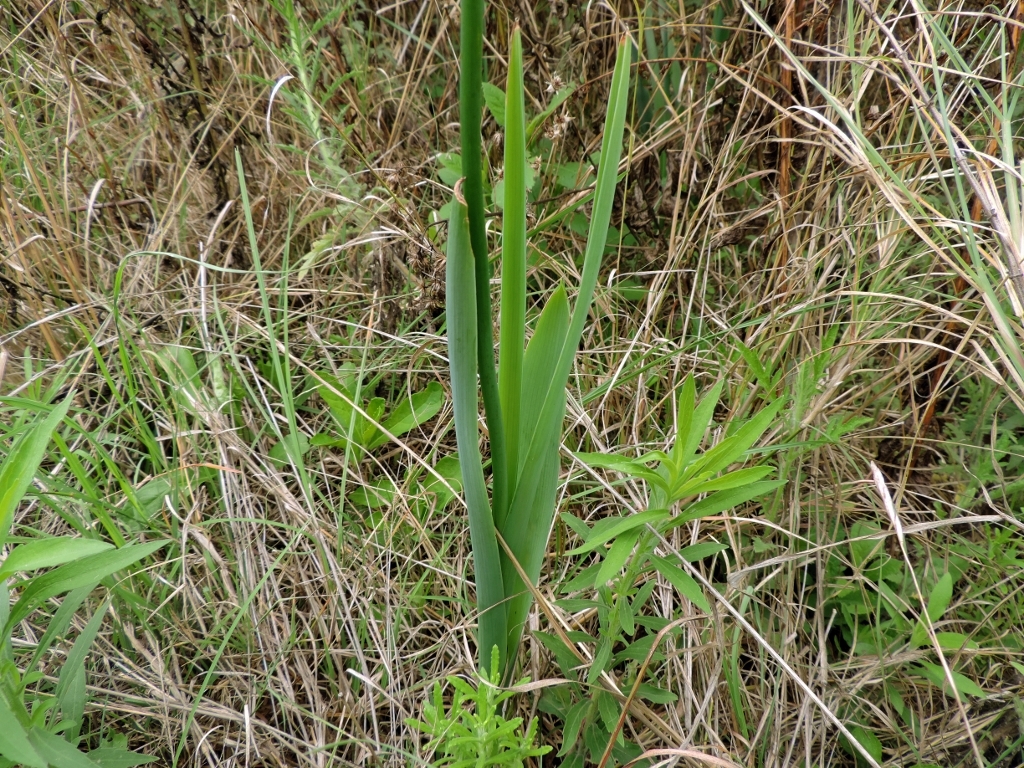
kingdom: Plantae
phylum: Tracheophyta
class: Liliopsida
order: Asparagales
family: Asparagaceae
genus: Albuca
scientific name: Albuca virens
